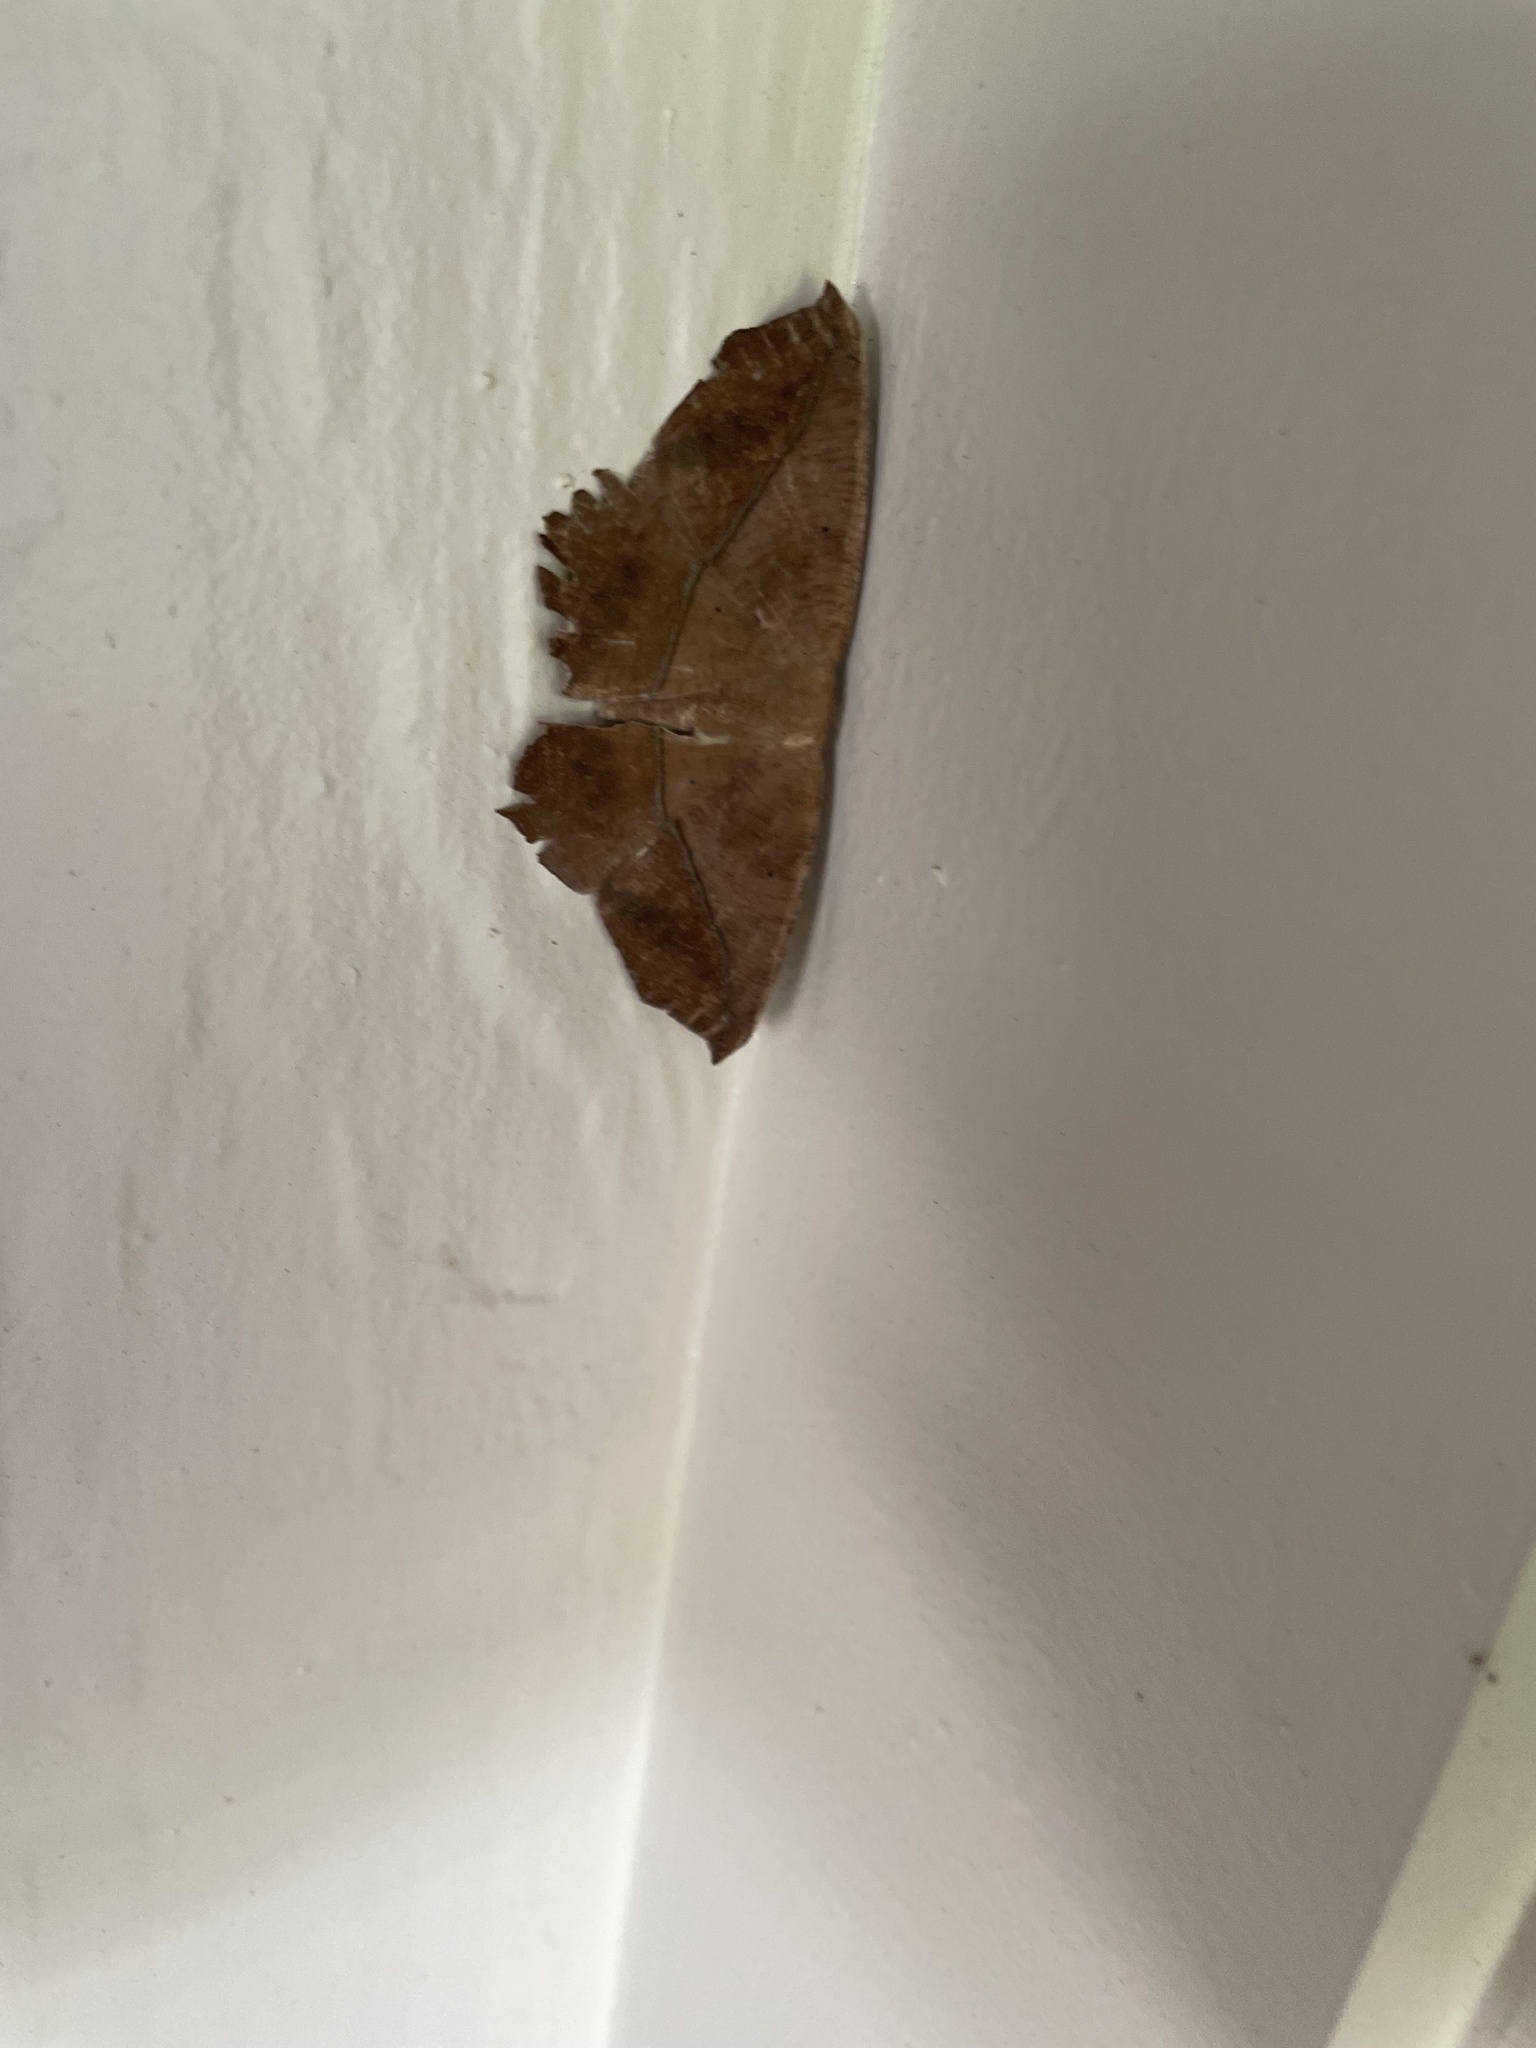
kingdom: Animalia
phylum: Arthropoda
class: Insecta
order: Lepidoptera
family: Geometridae
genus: Prochoerodes
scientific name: Prochoerodes lineola
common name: Large maple spanworm
